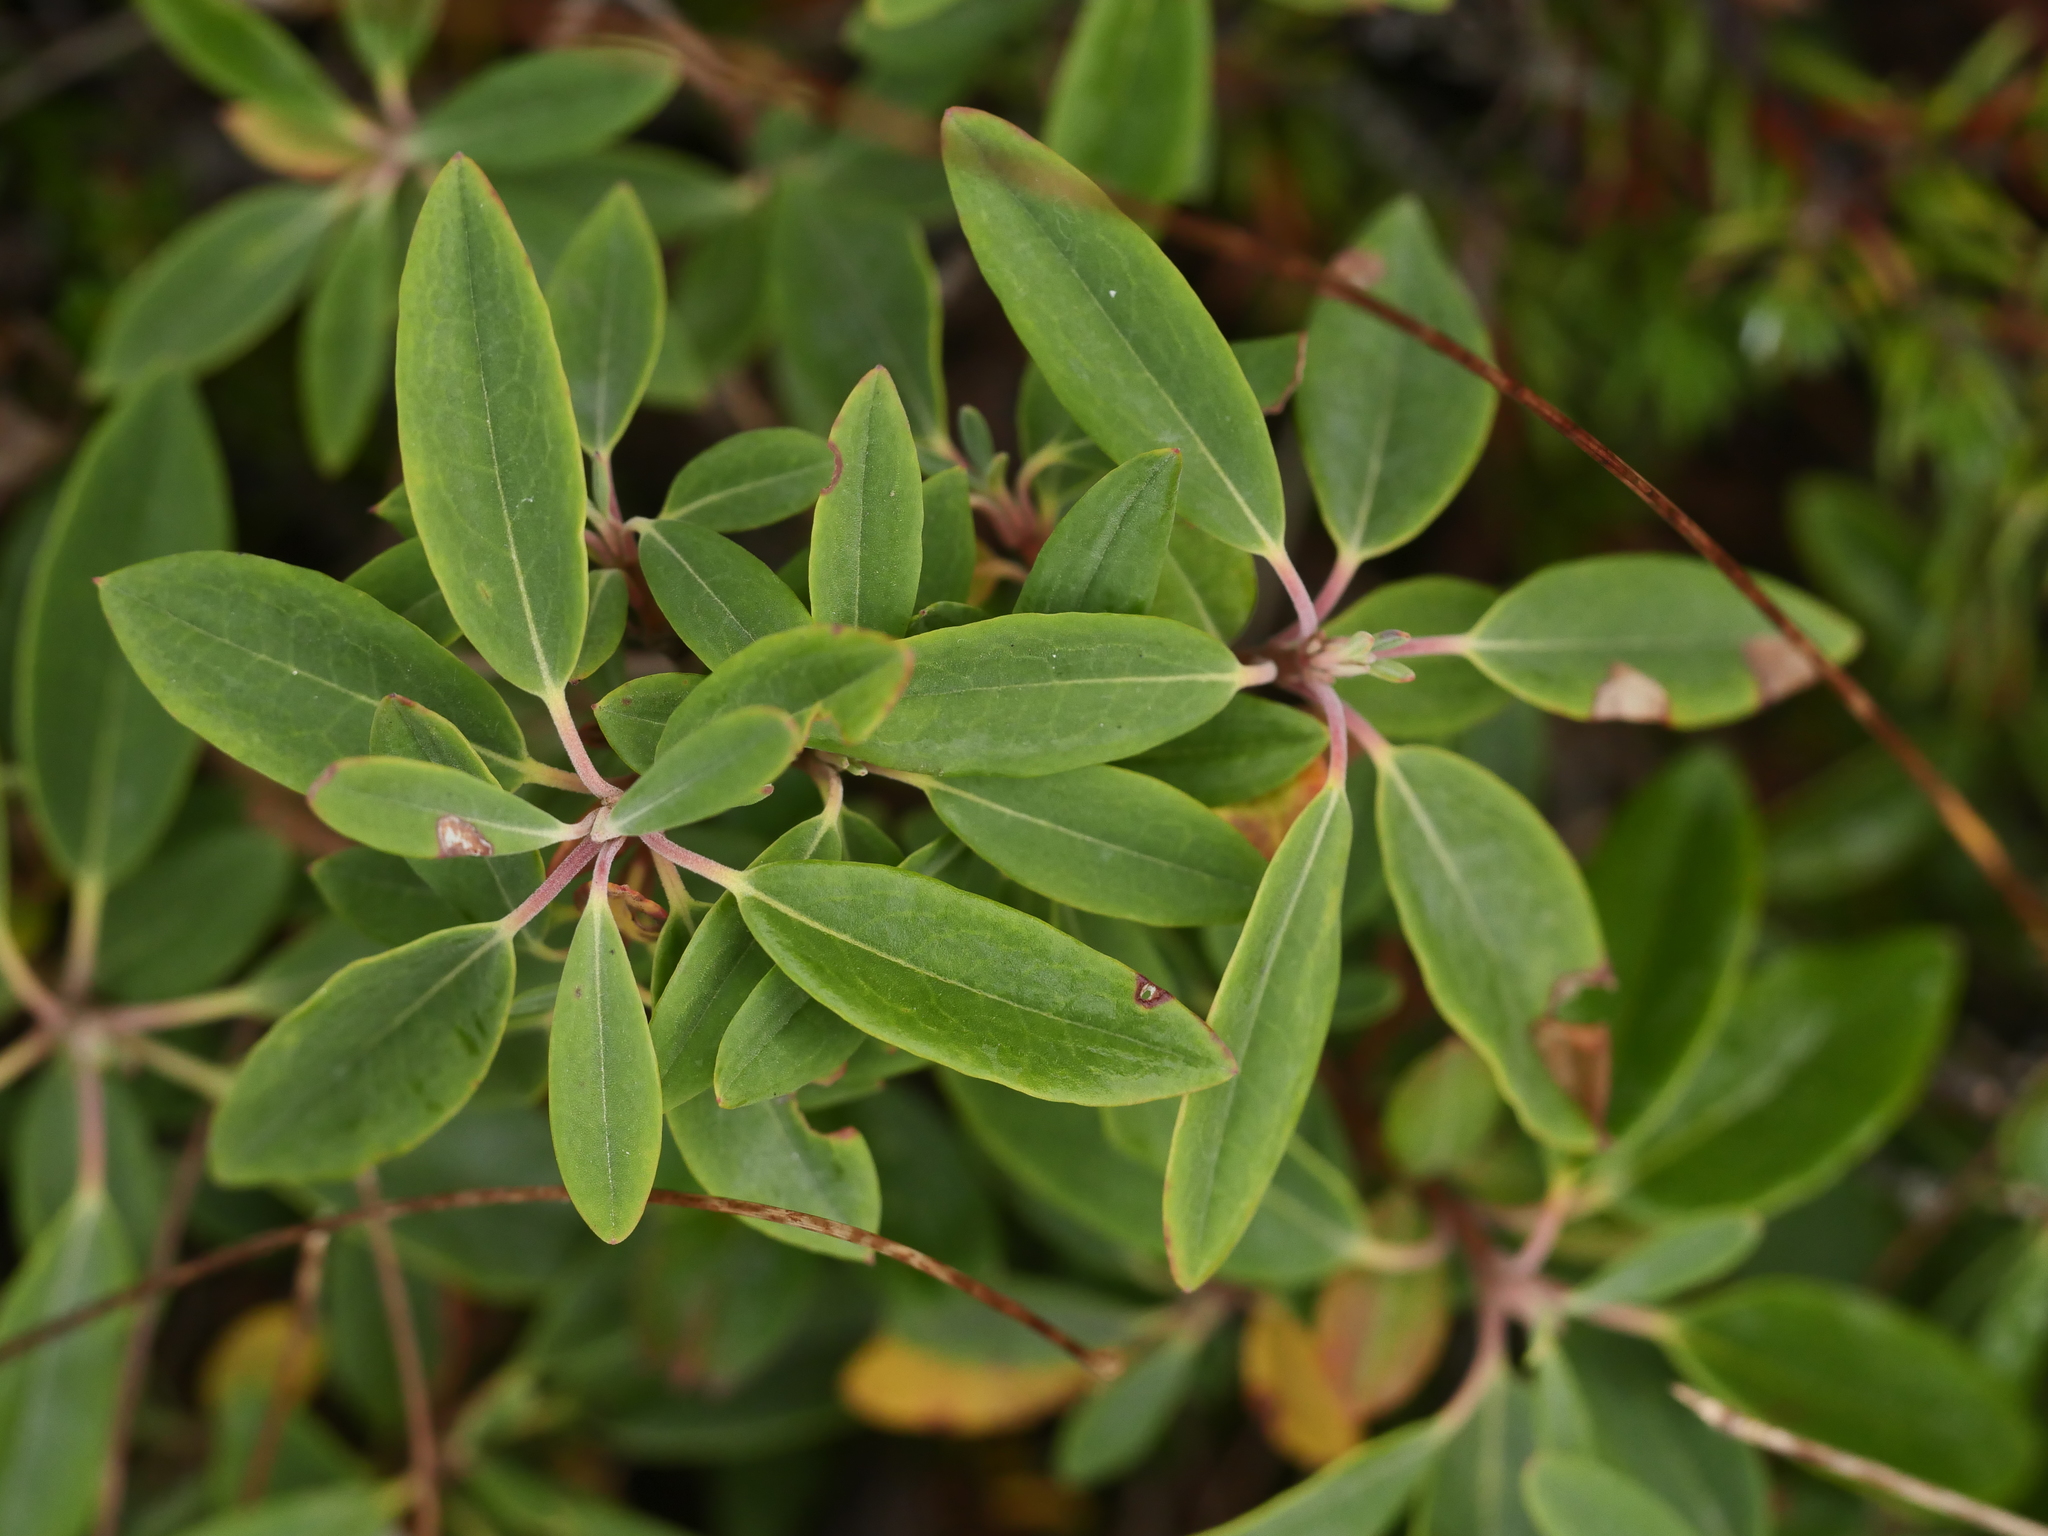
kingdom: Plantae
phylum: Tracheophyta
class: Magnoliopsida
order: Ericales
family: Ericaceae
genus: Kalmia
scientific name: Kalmia angustifolia
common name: Sheep-laurel
